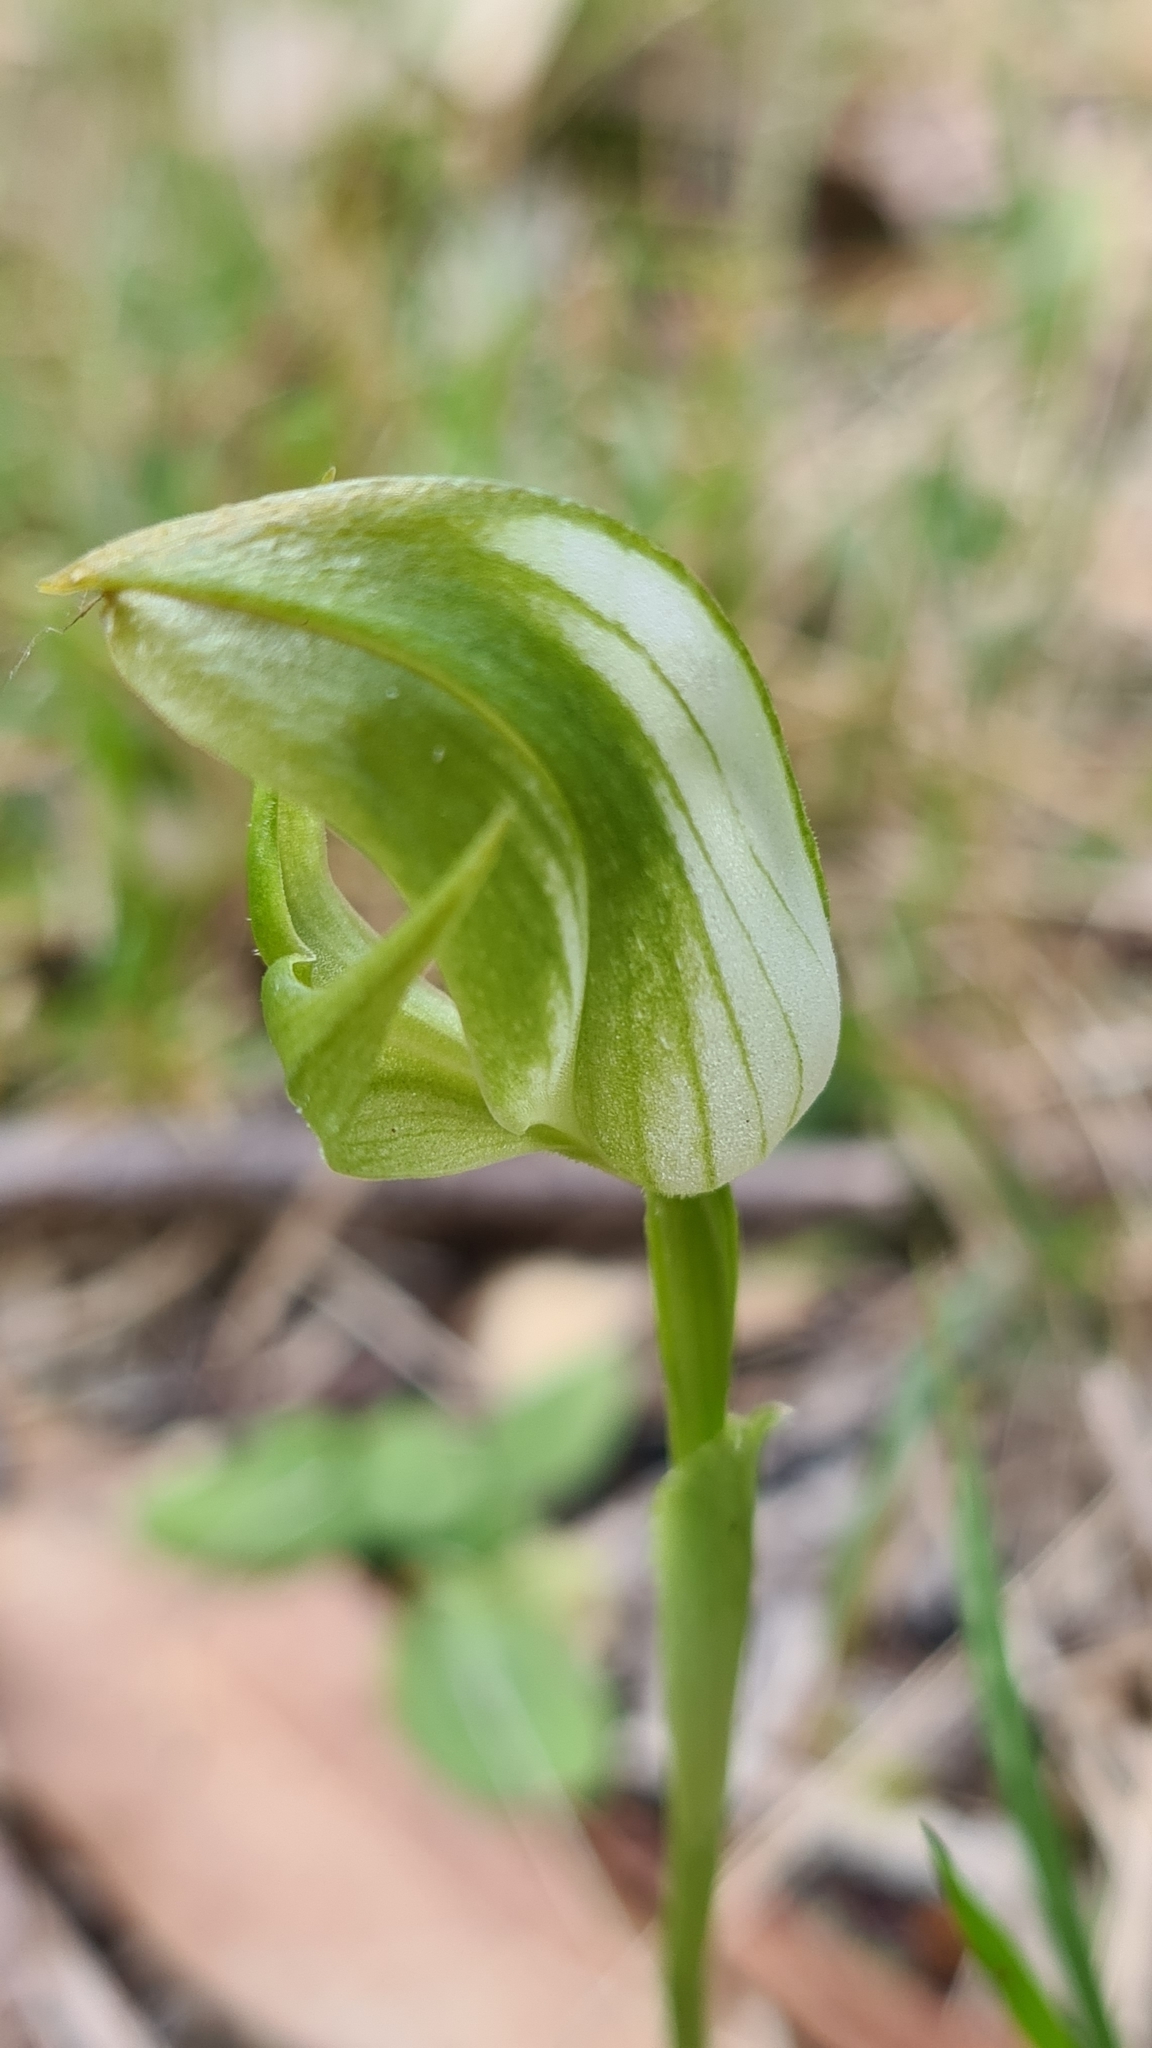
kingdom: Plantae
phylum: Tracheophyta
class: Liliopsida
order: Asparagales
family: Orchidaceae
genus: Pterostylis
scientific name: Pterostylis curta
